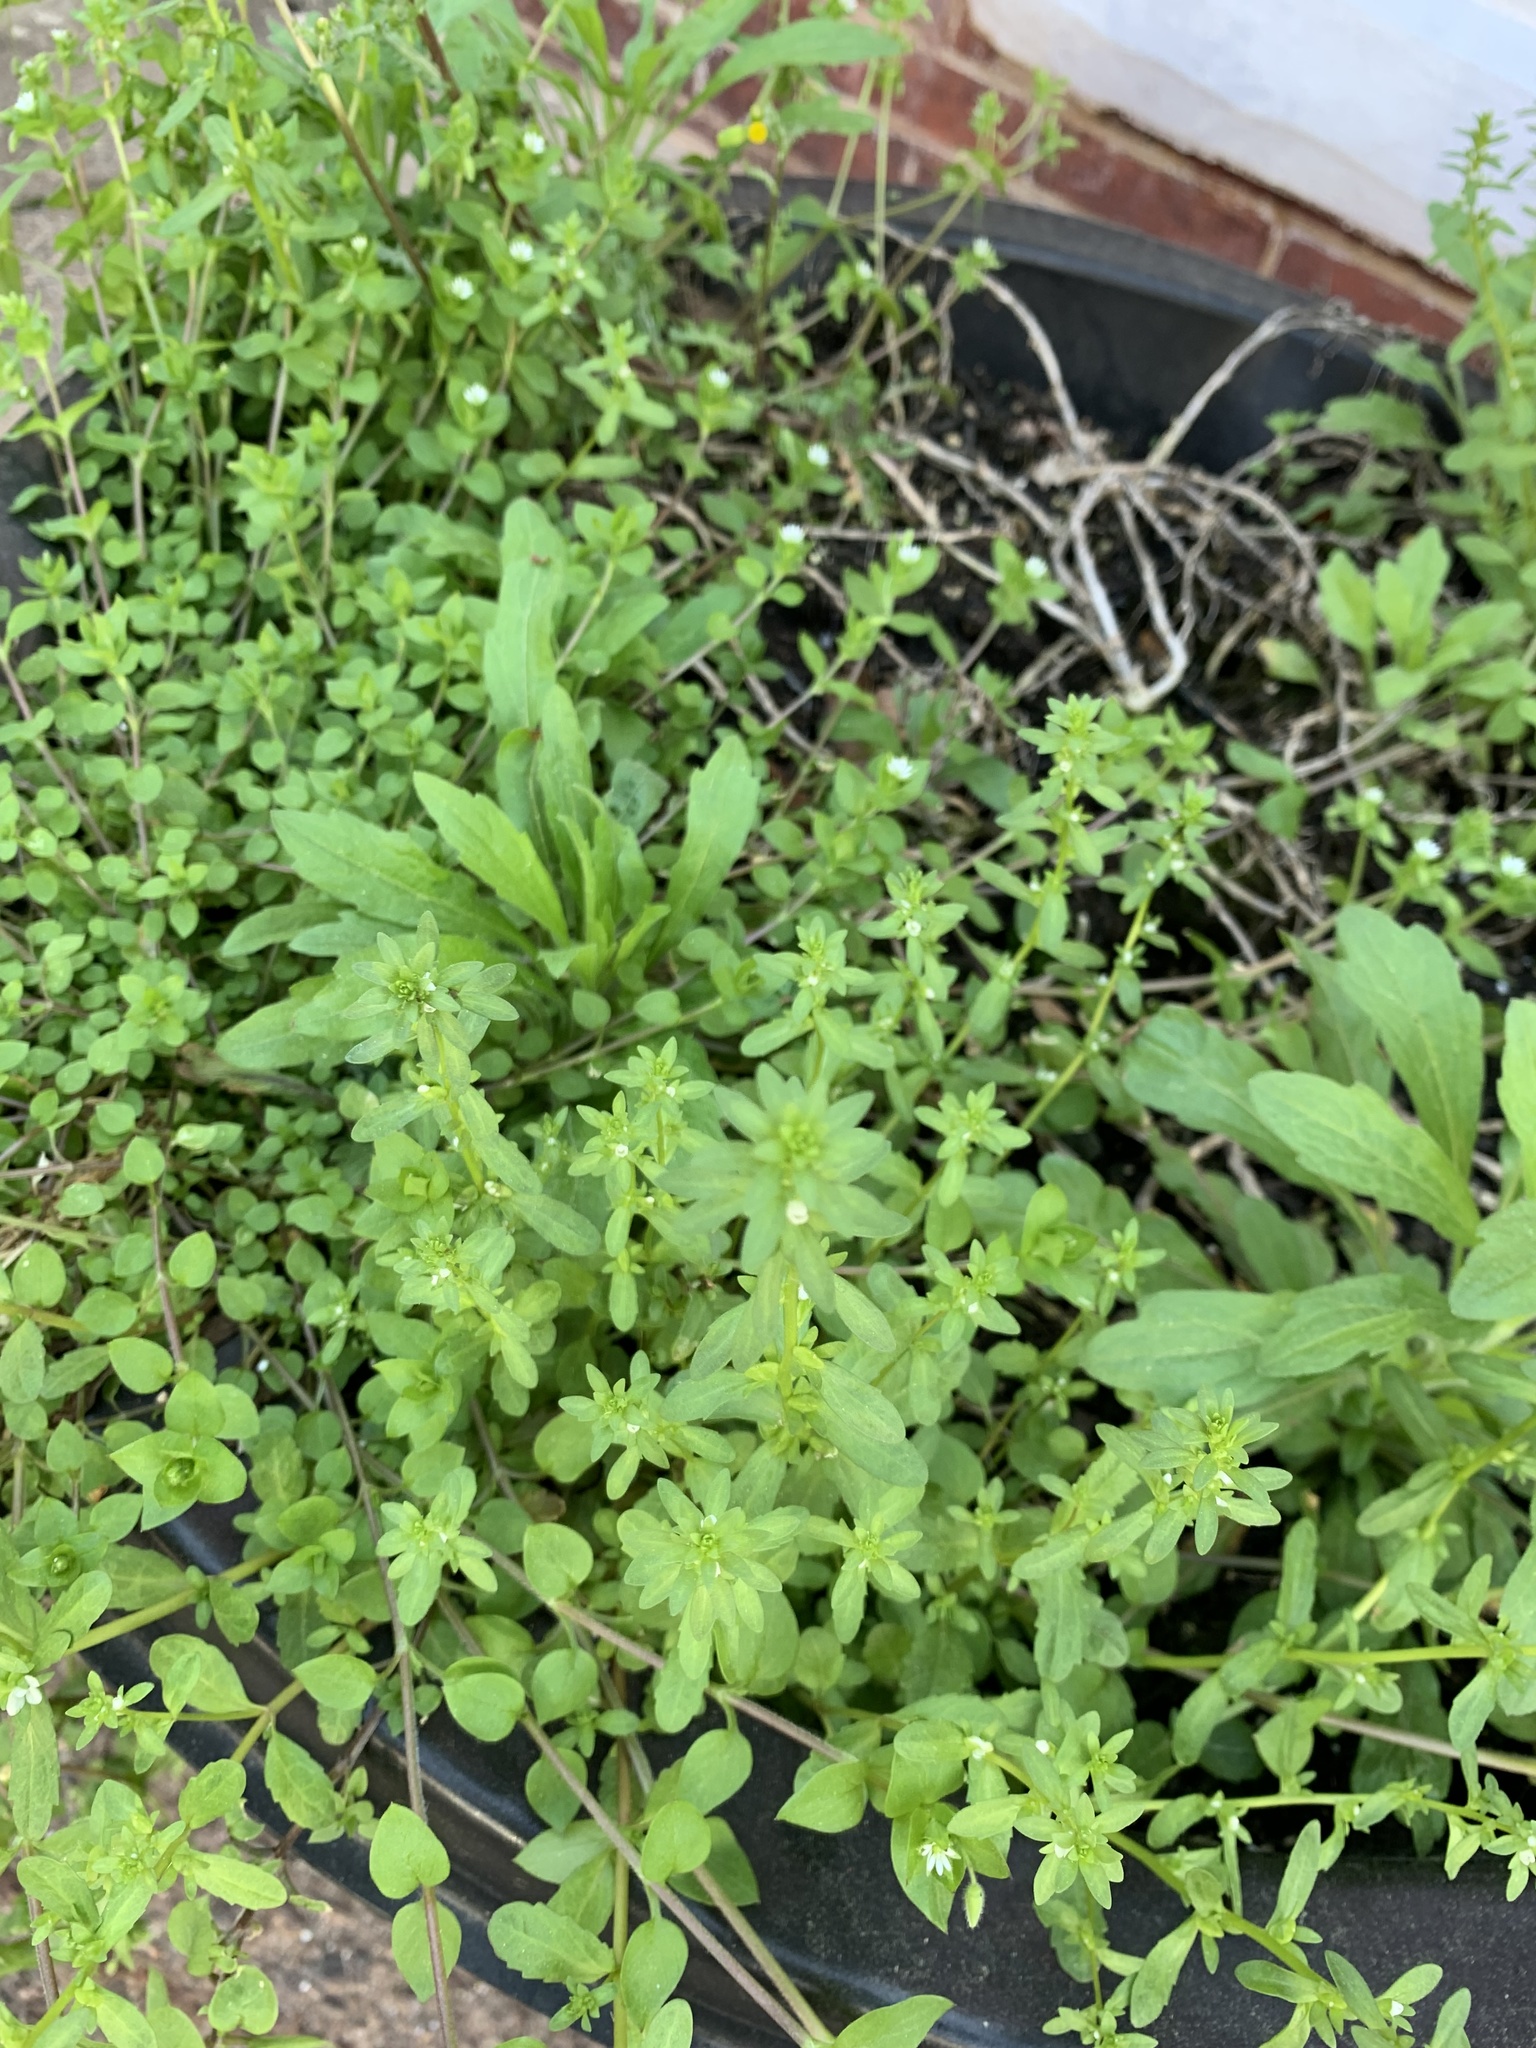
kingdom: Plantae
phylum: Tracheophyta
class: Magnoliopsida
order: Lamiales
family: Plantaginaceae
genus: Veronica
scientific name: Veronica peregrina
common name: Neckweed
